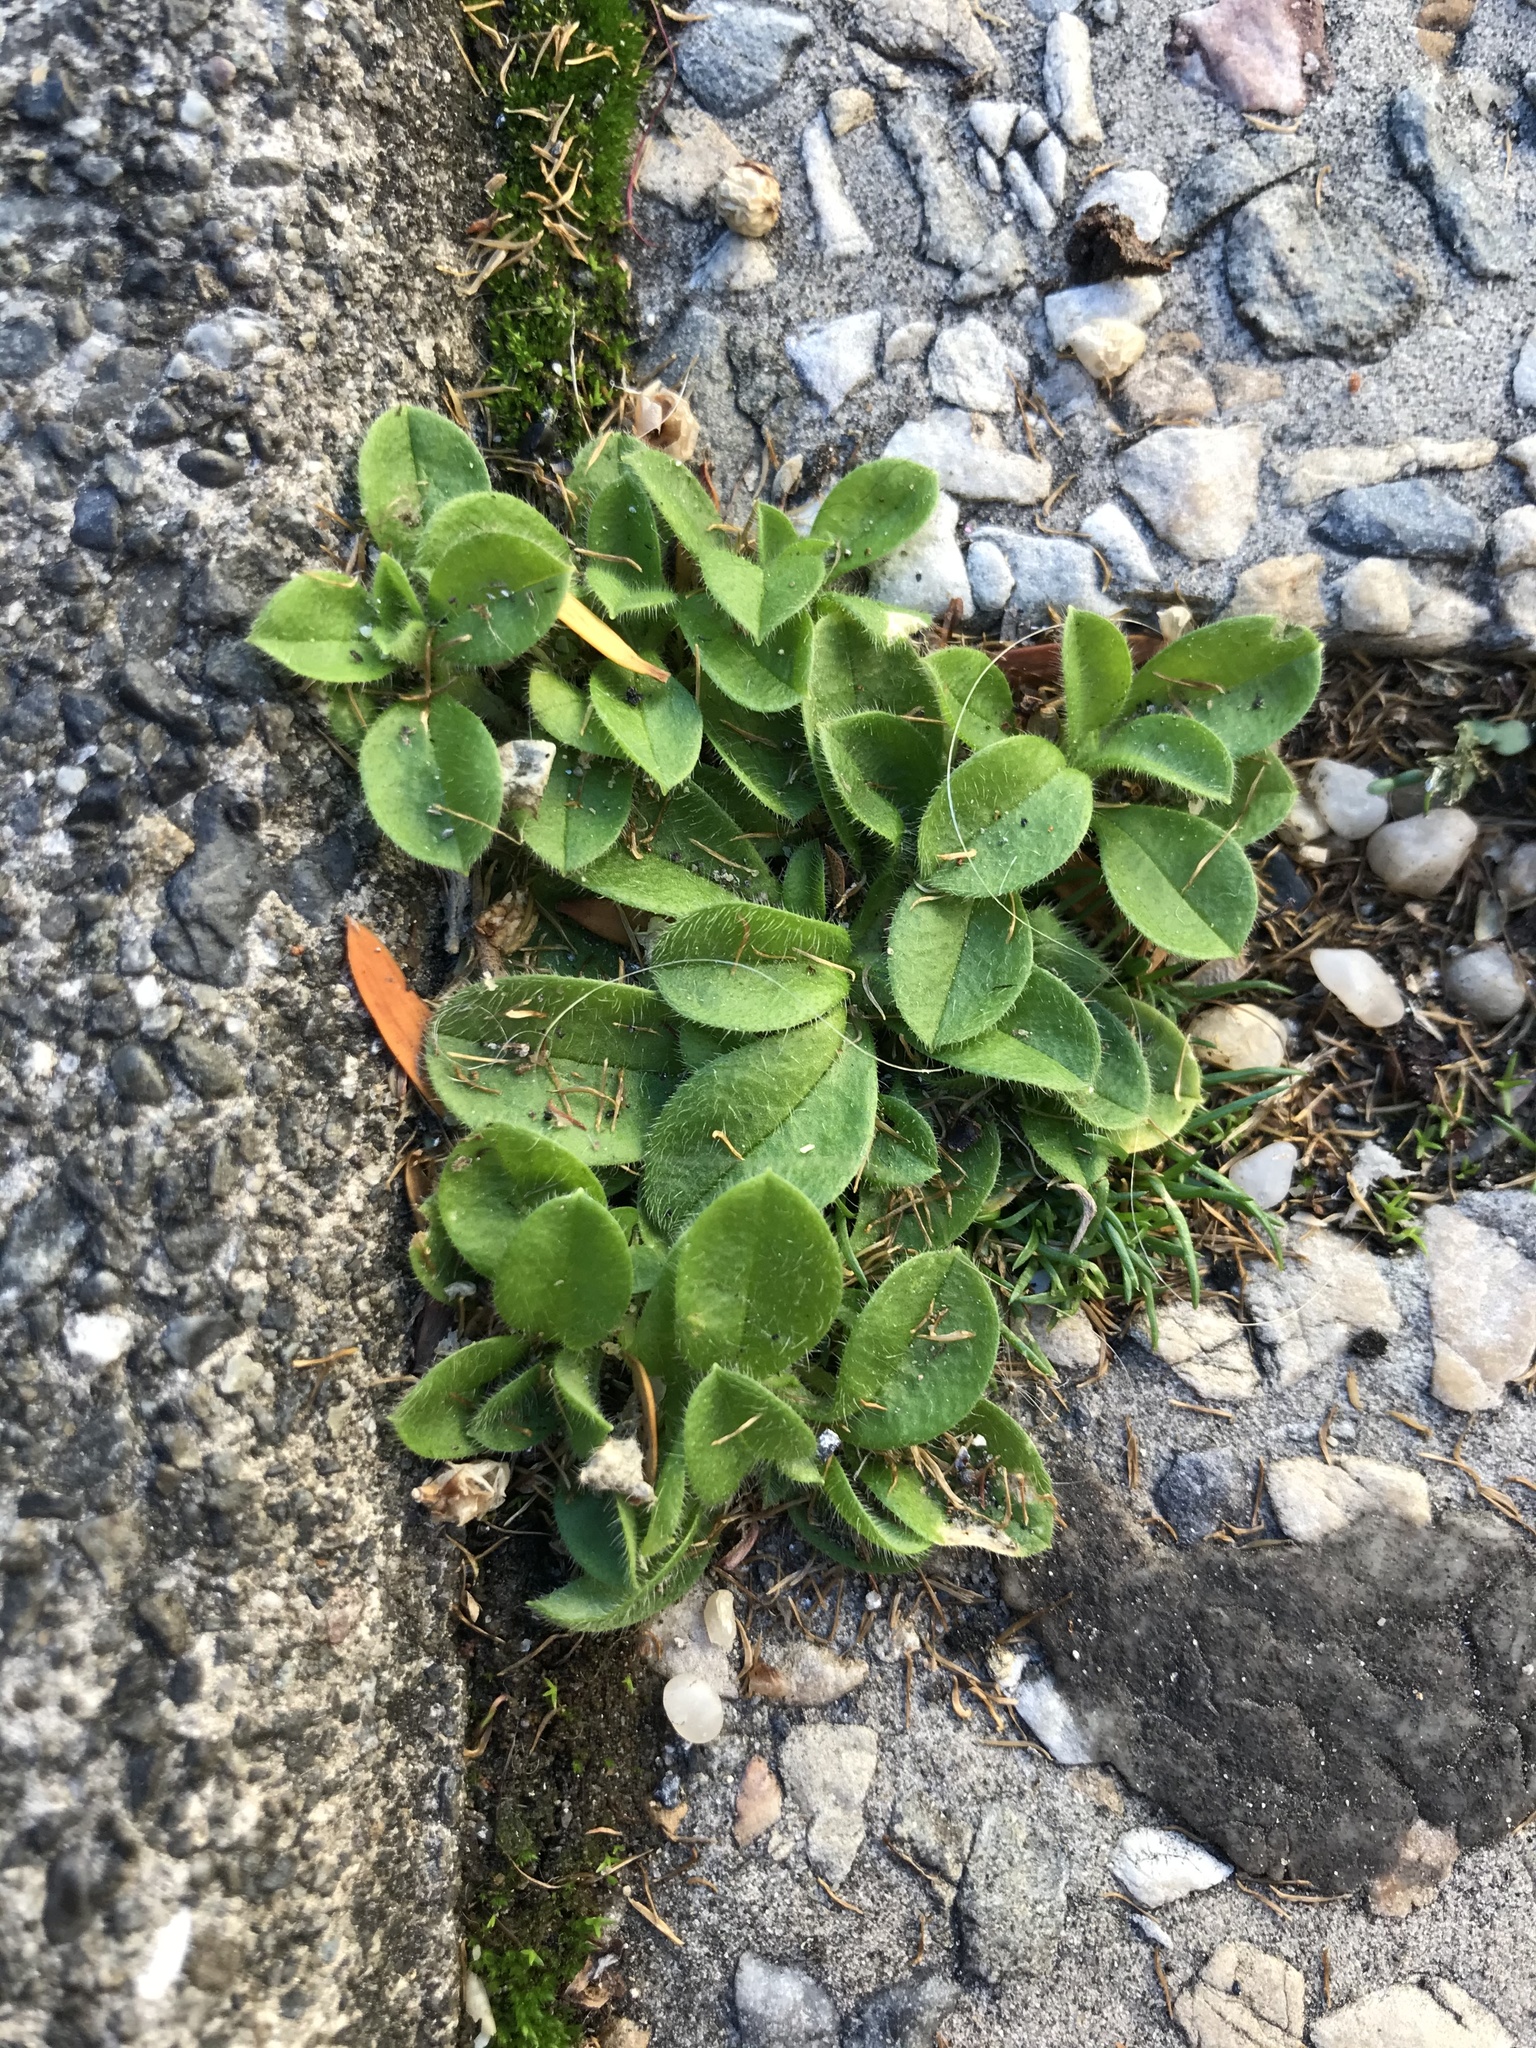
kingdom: Plantae
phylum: Tracheophyta
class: Magnoliopsida
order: Caryophyllales
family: Caryophyllaceae
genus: Cerastium
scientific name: Cerastium fontanum
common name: Common mouse-ear
